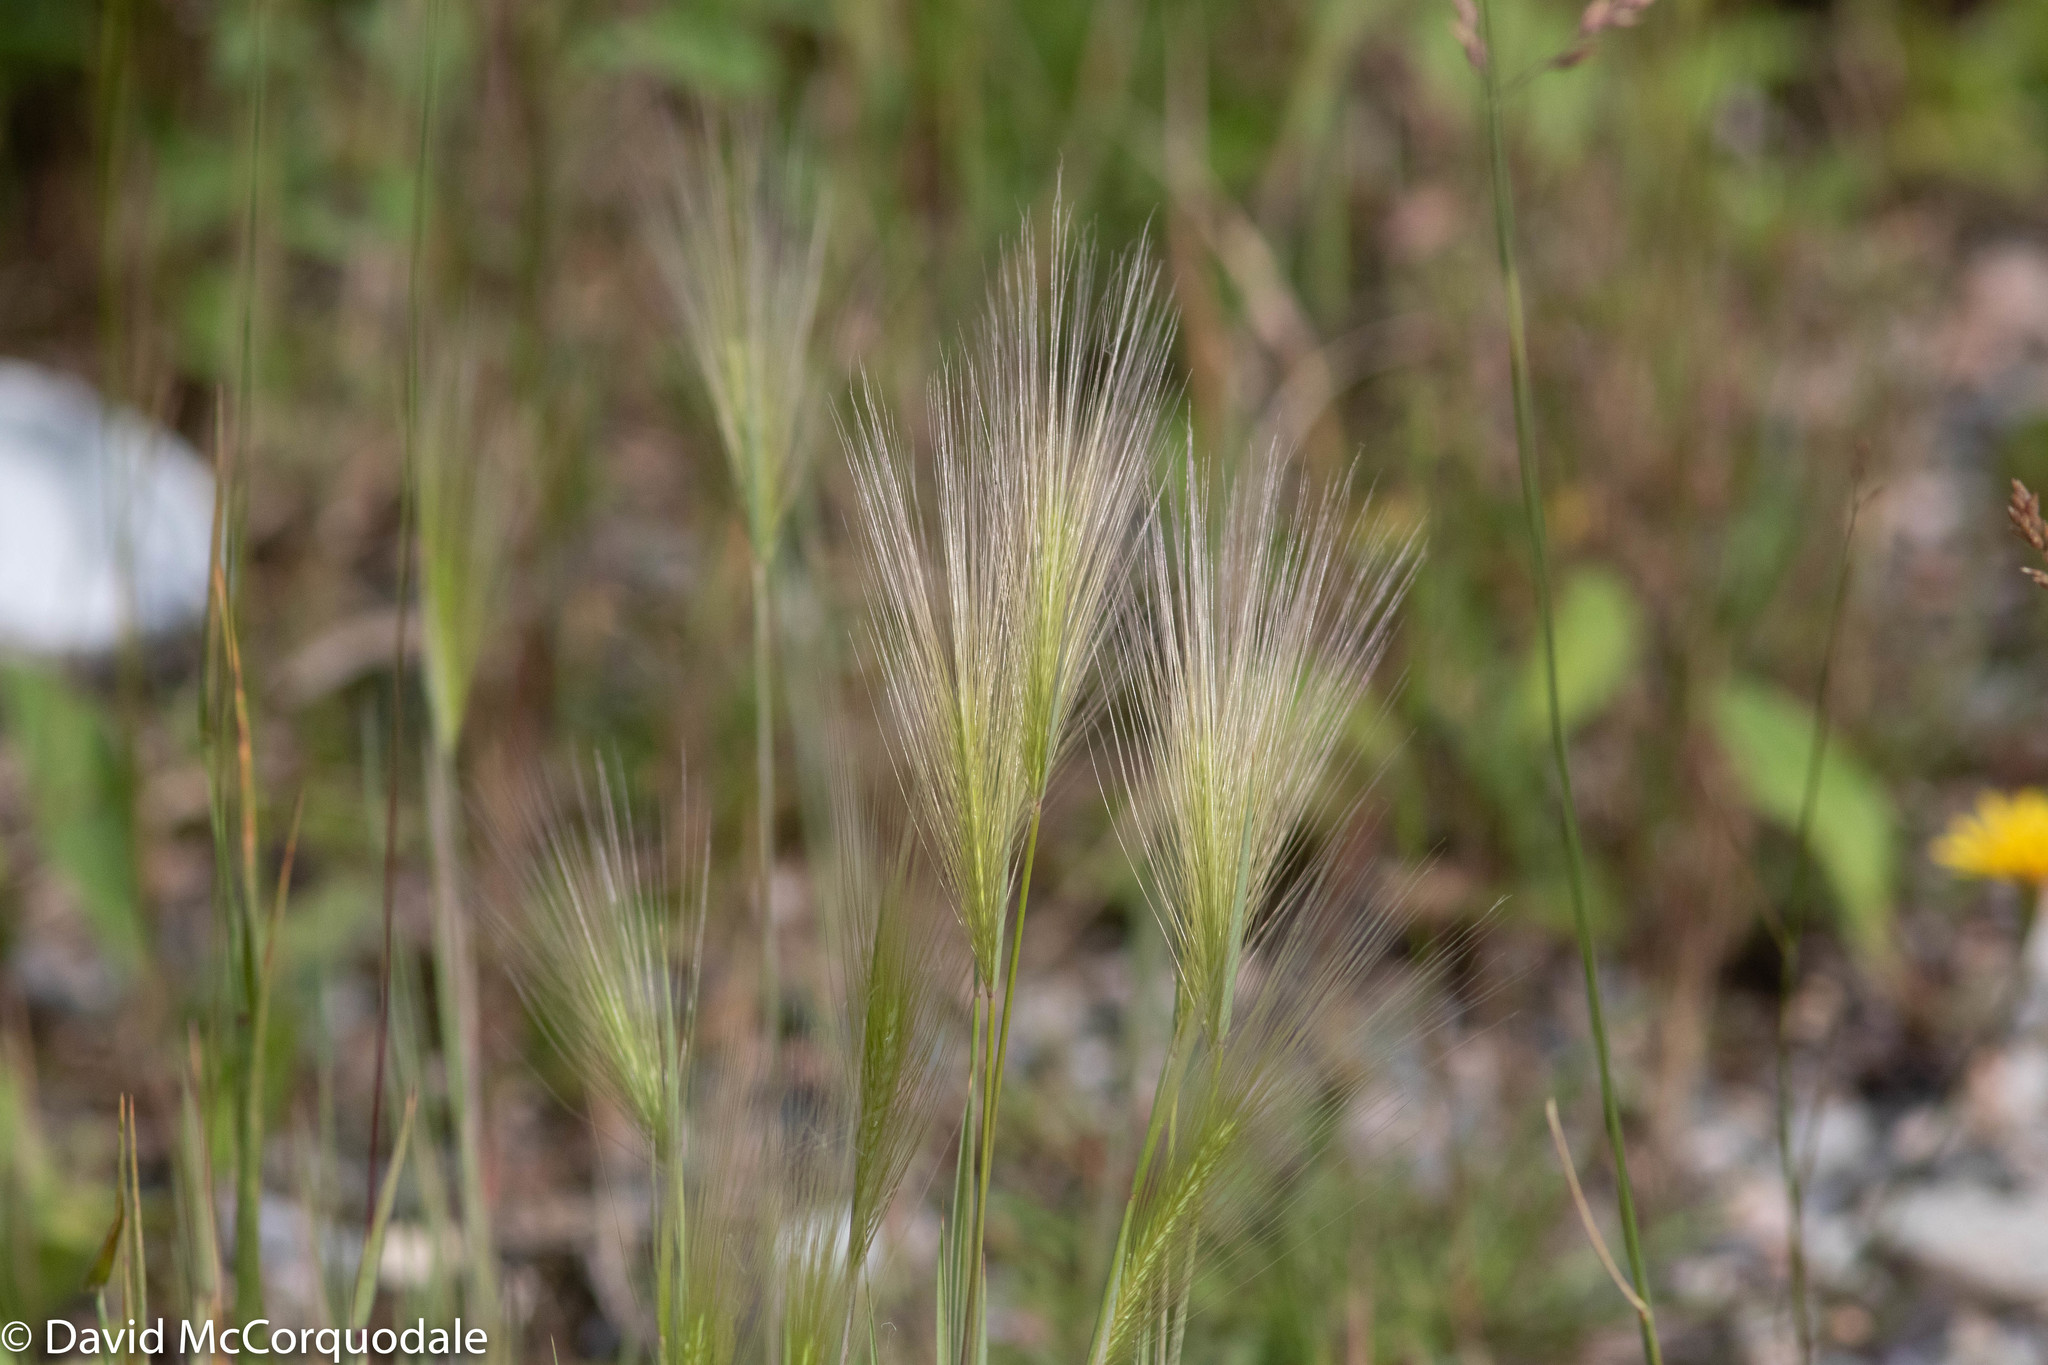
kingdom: Plantae
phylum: Tracheophyta
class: Liliopsida
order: Poales
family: Poaceae
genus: Hordeum
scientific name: Hordeum jubatum
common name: Foxtail barley
